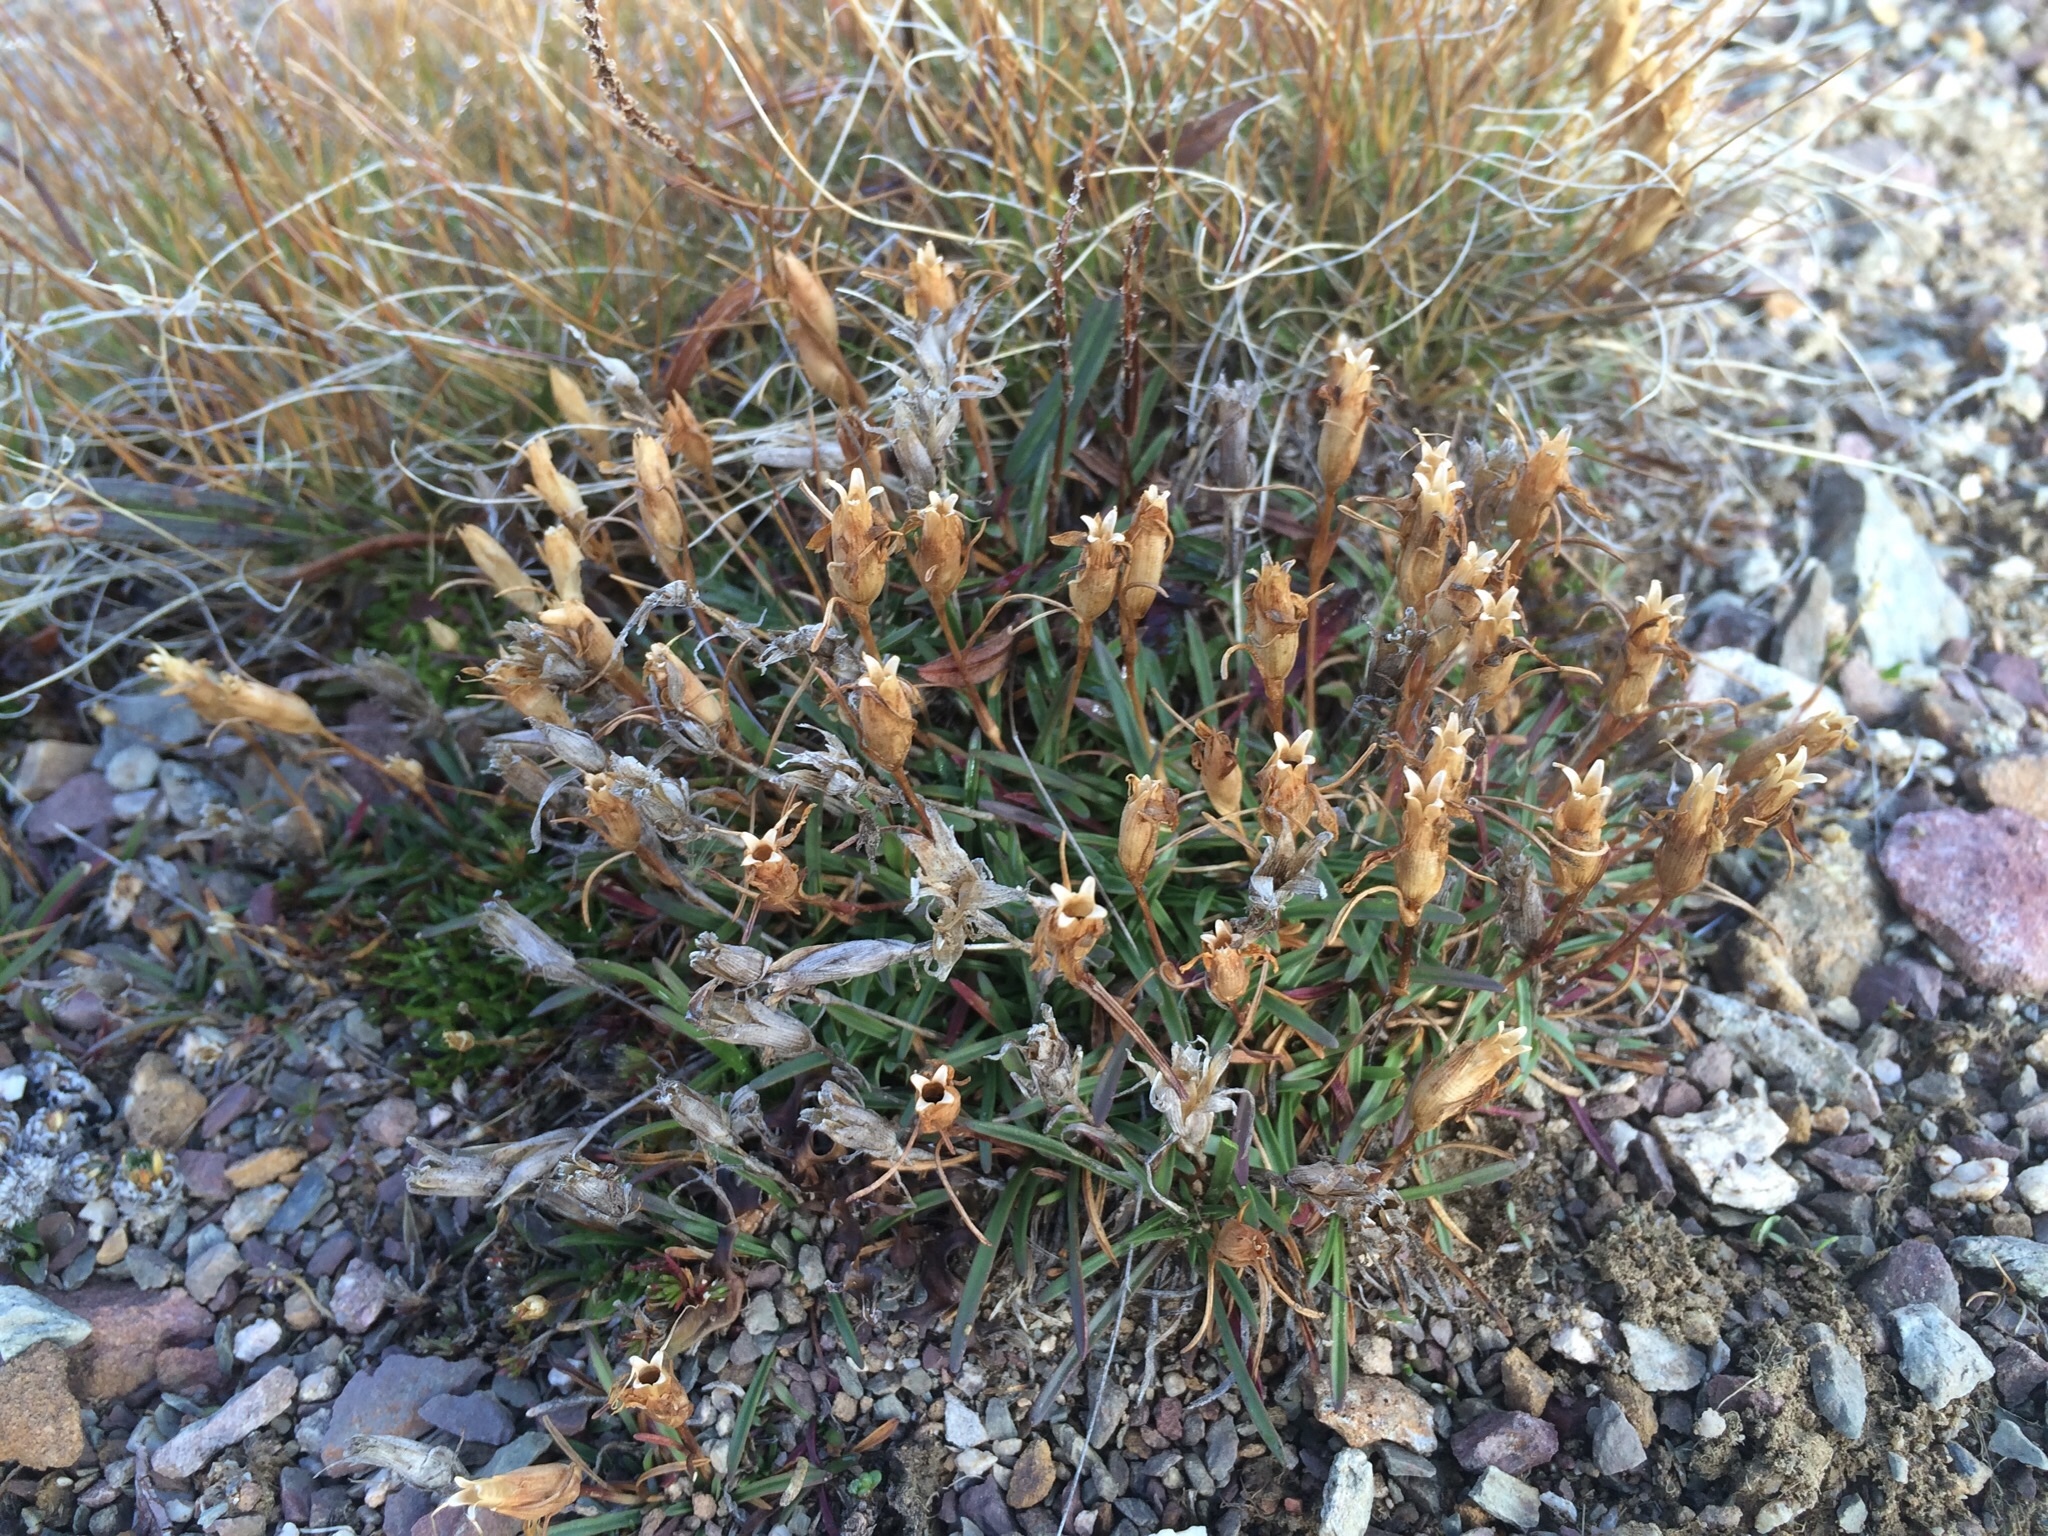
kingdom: Plantae
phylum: Tracheophyta
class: Magnoliopsida
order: Caryophyllales
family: Caryophyllaceae
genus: Dianthus
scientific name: Dianthus glacialis
